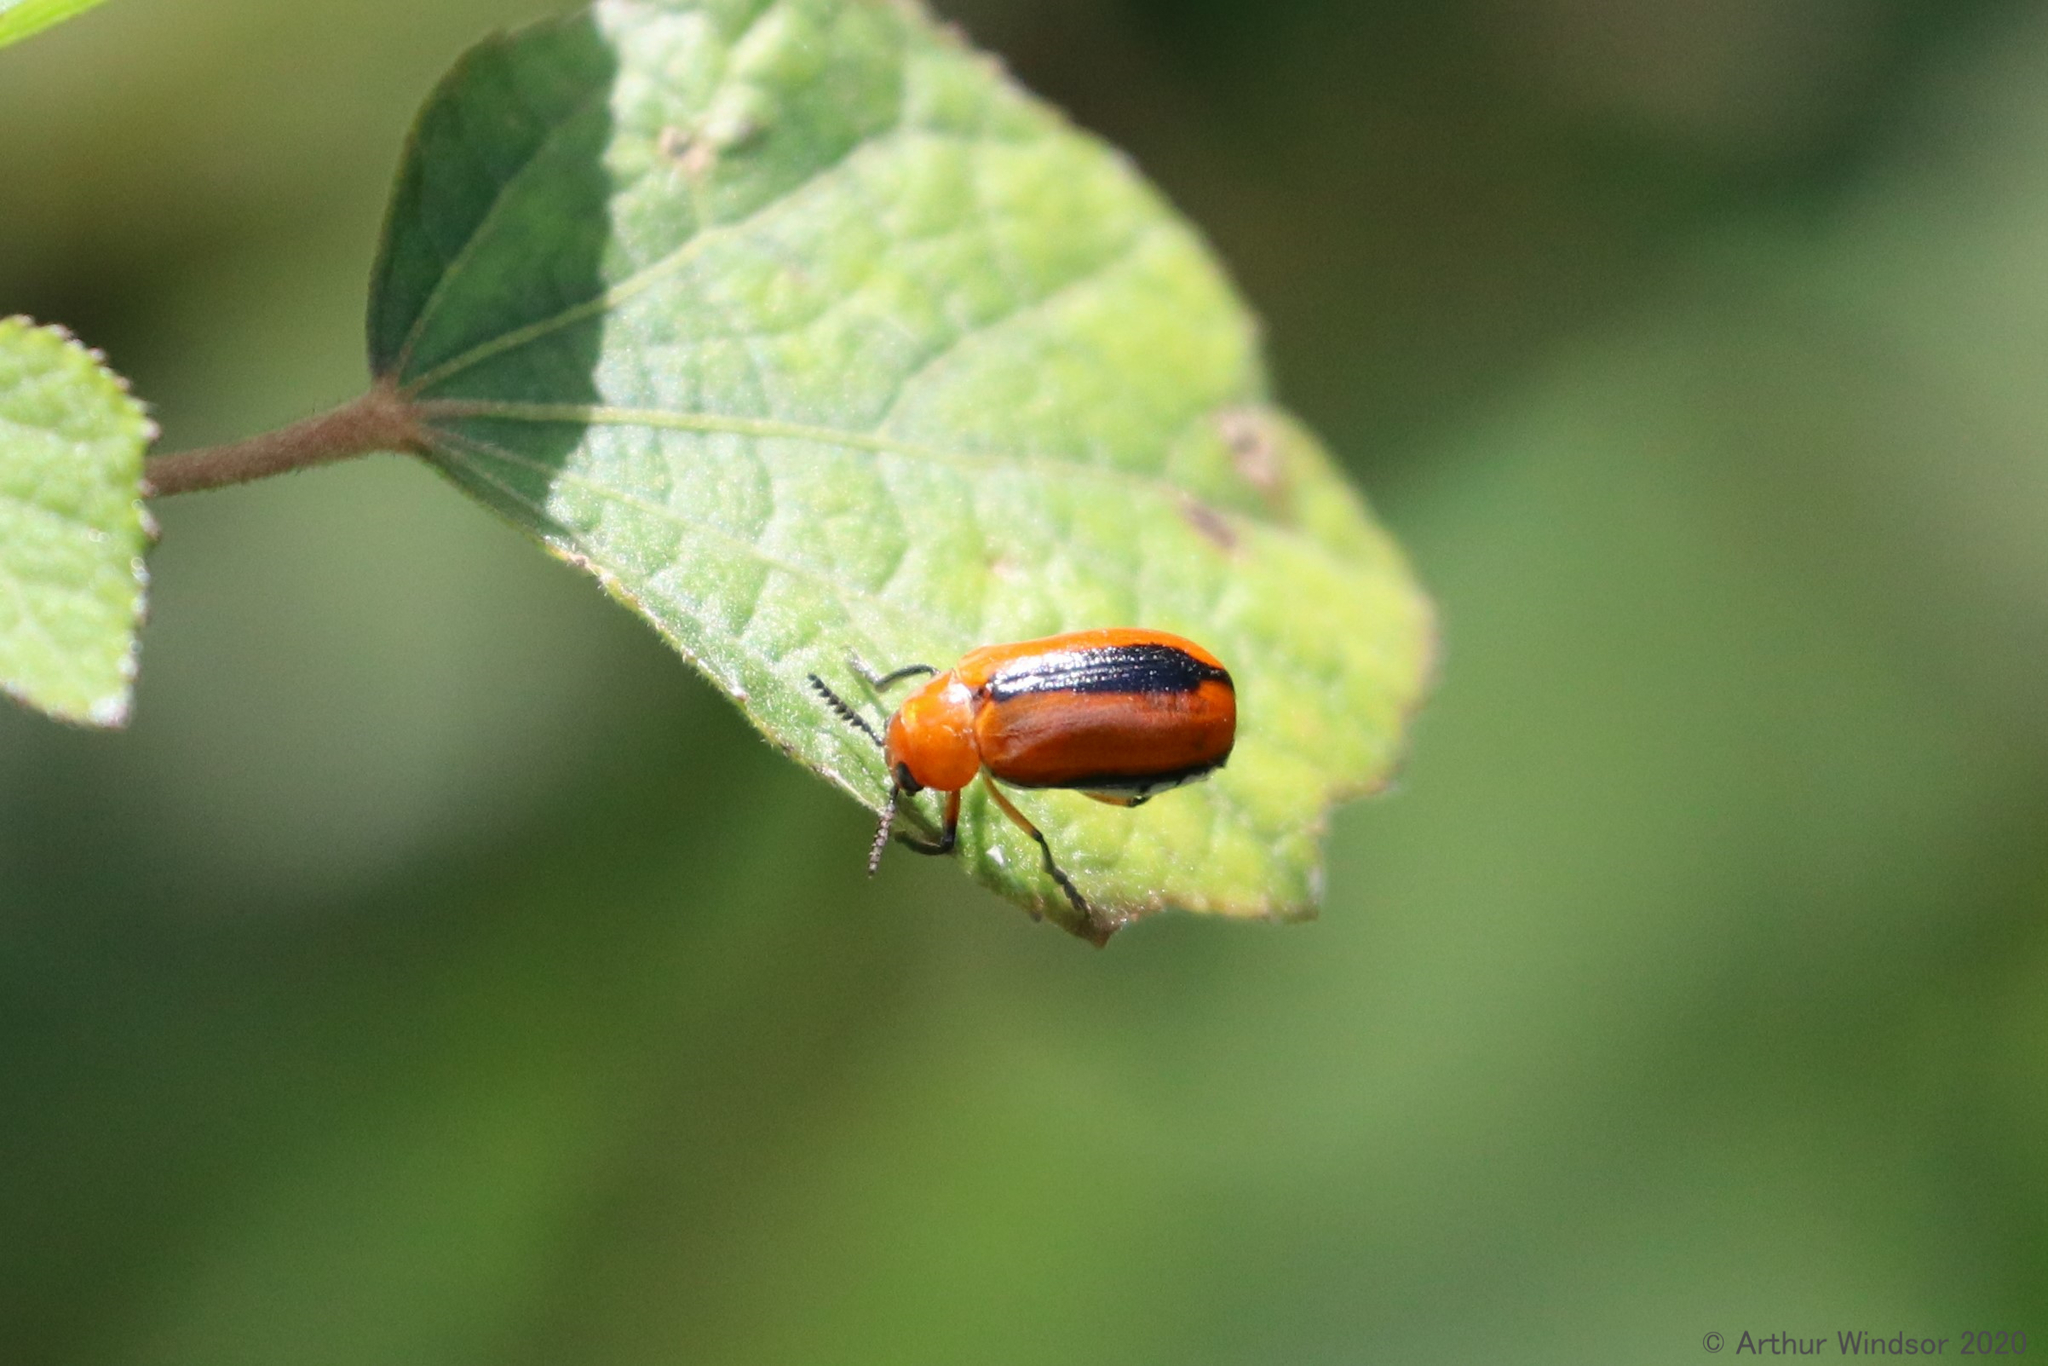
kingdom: Animalia
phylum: Arthropoda
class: Insecta
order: Coleoptera
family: Chrysomelidae
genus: Anomoea
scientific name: Anomoea laticlavia
